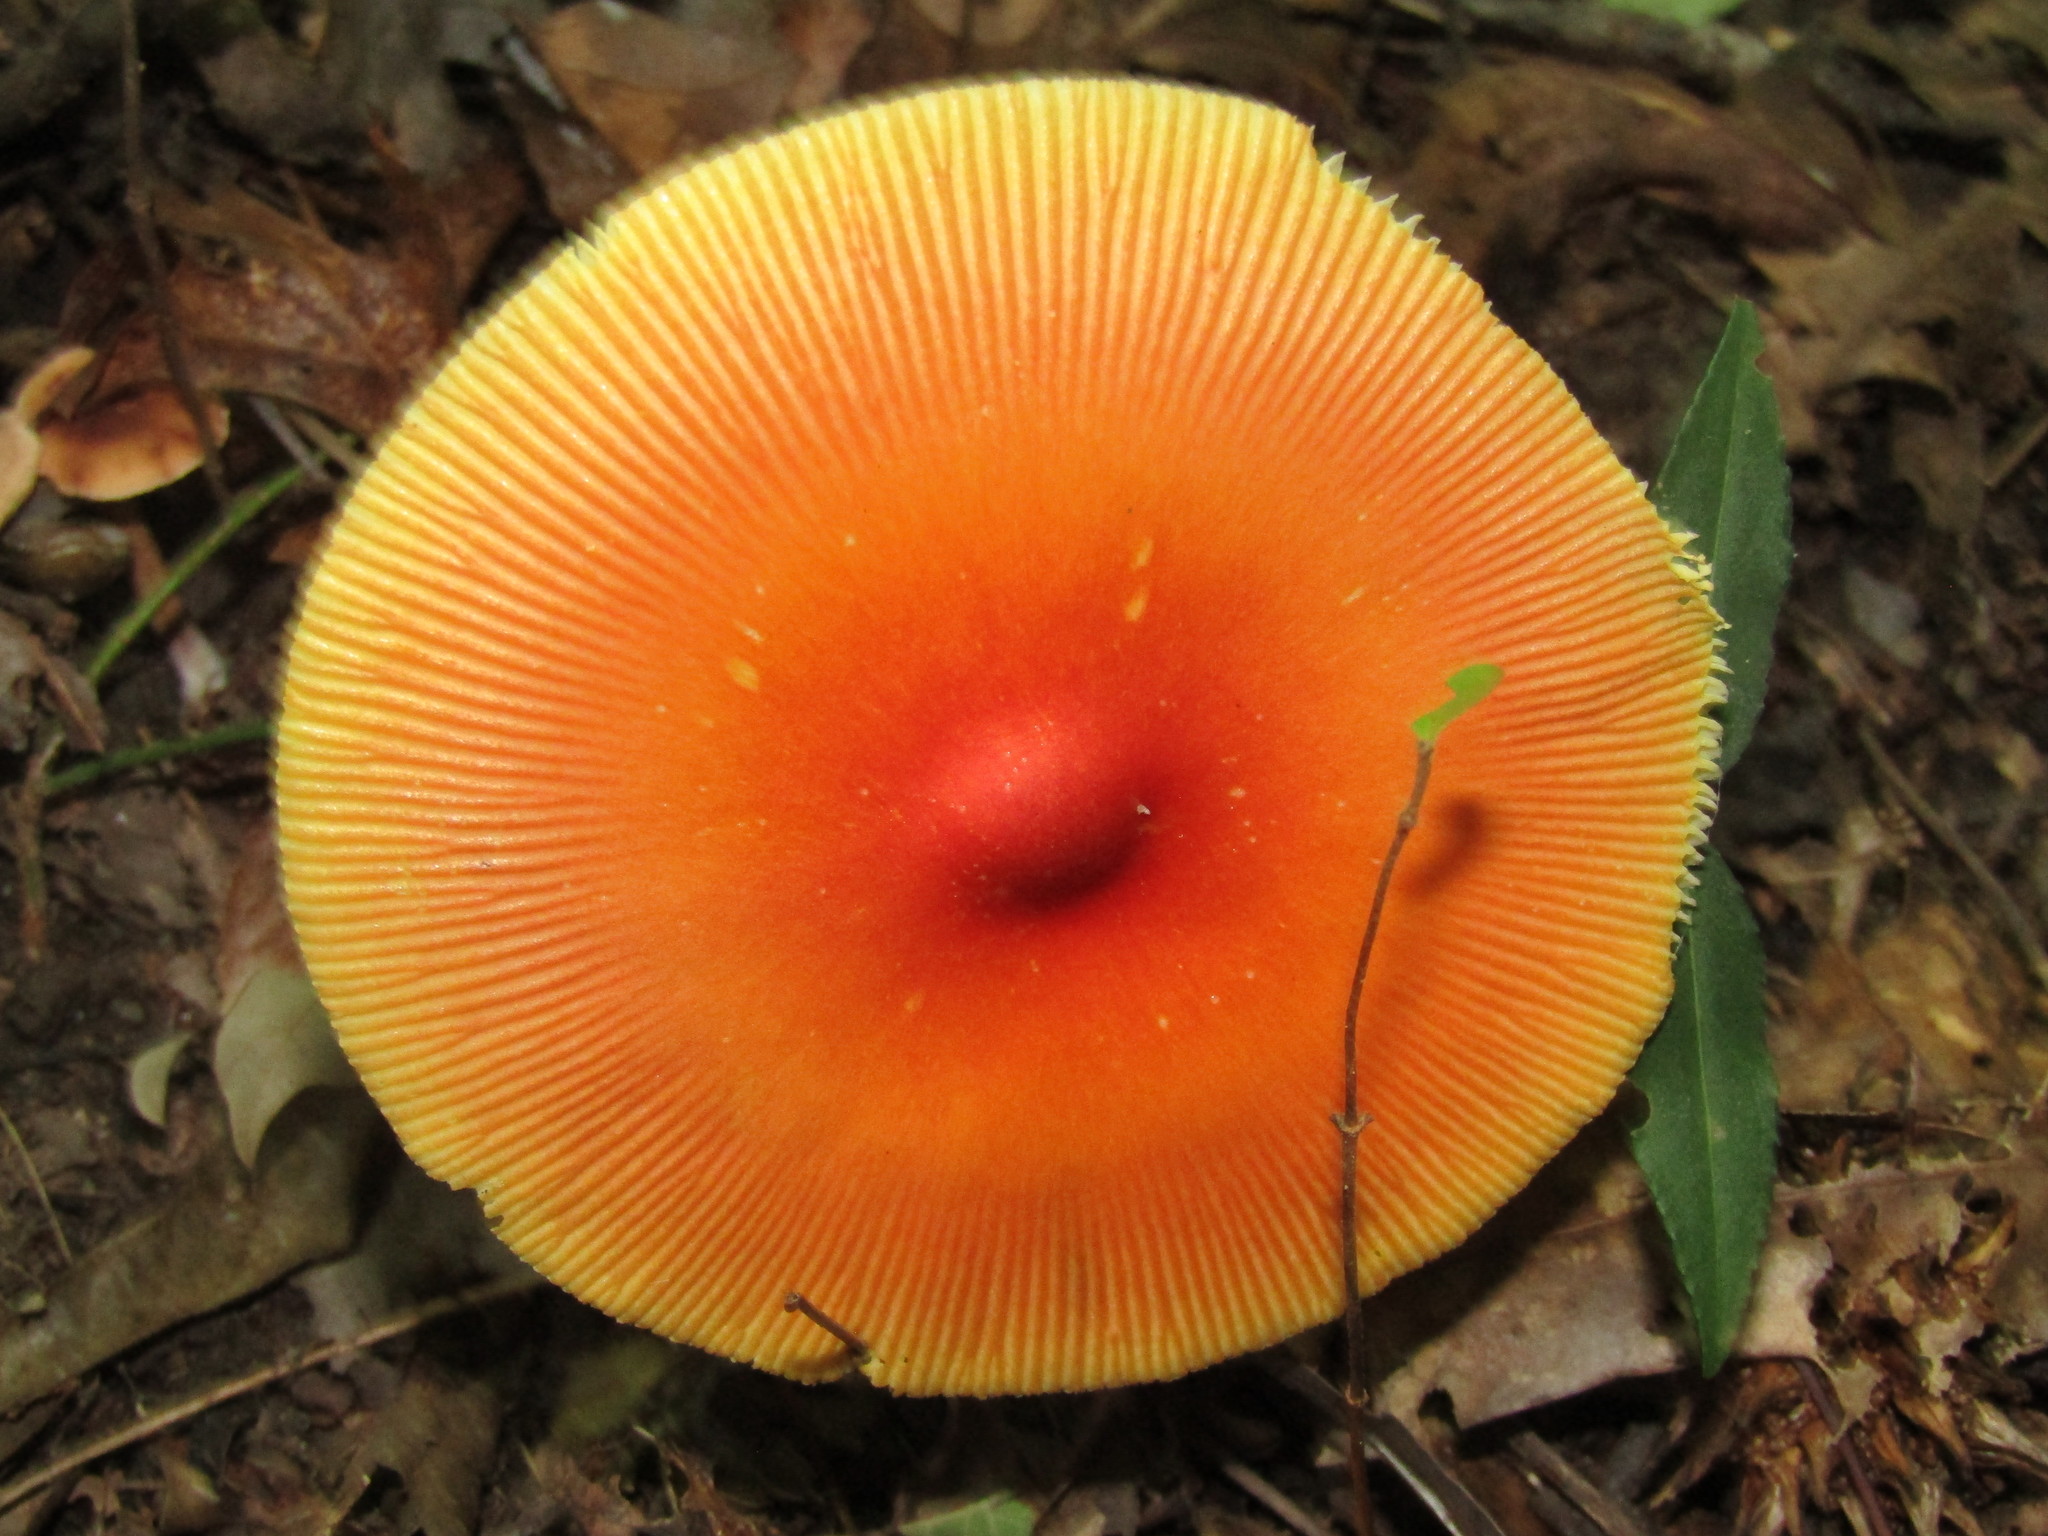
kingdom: Fungi
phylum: Basidiomycota
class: Agaricomycetes
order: Agaricales
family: Amanitaceae
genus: Amanita
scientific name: Amanita jacksonii
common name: Jackson's slender caesar
